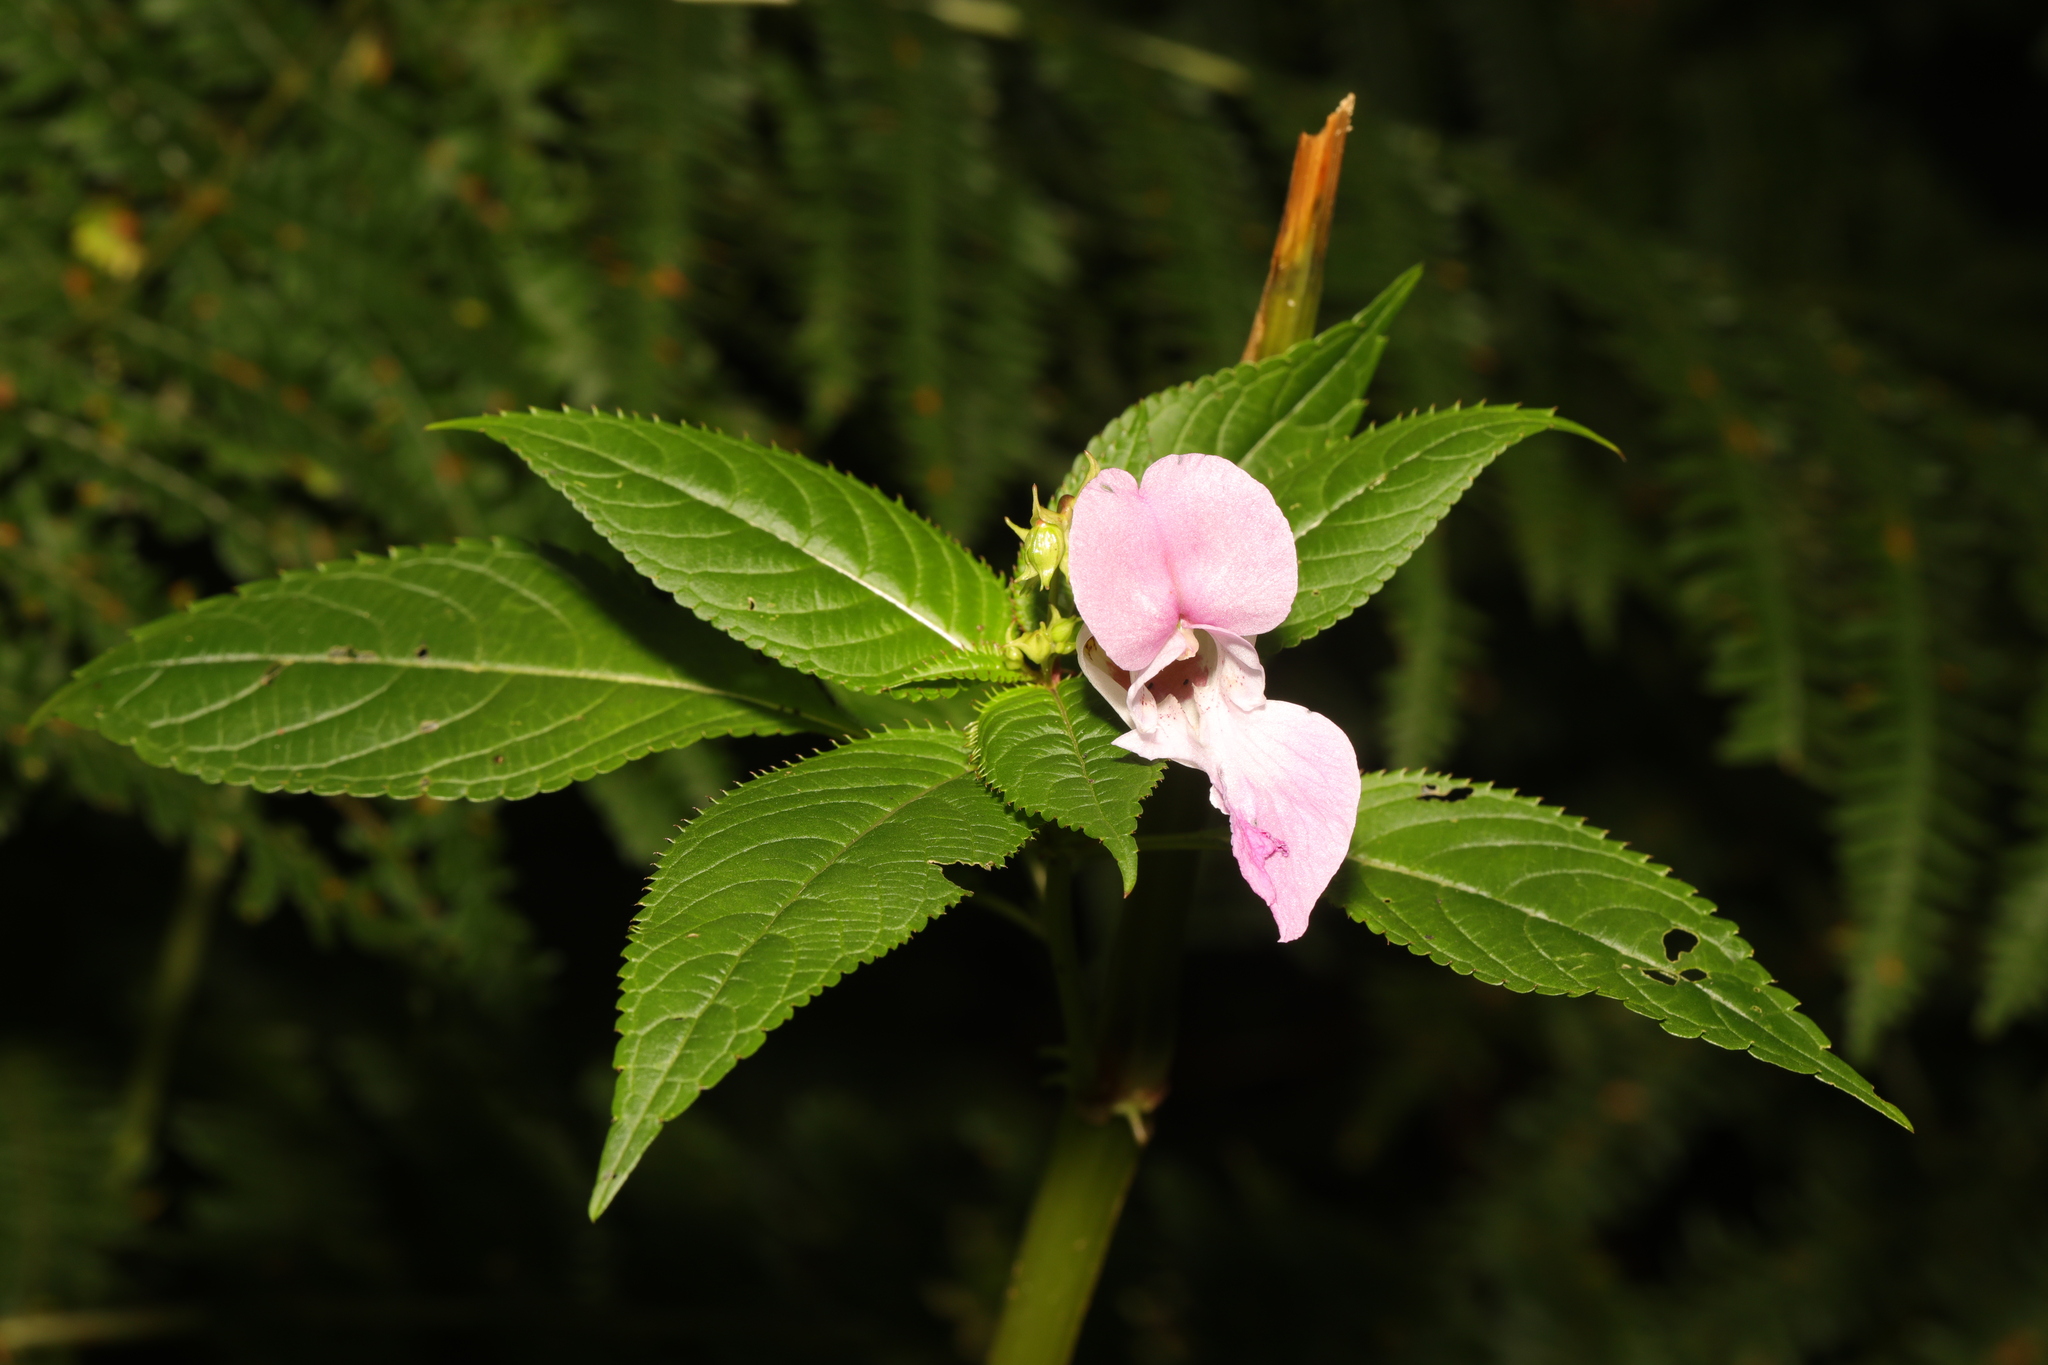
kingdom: Plantae
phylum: Tracheophyta
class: Magnoliopsida
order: Ericales
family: Balsaminaceae
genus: Impatiens
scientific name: Impatiens glandulifera
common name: Himalayan balsam
